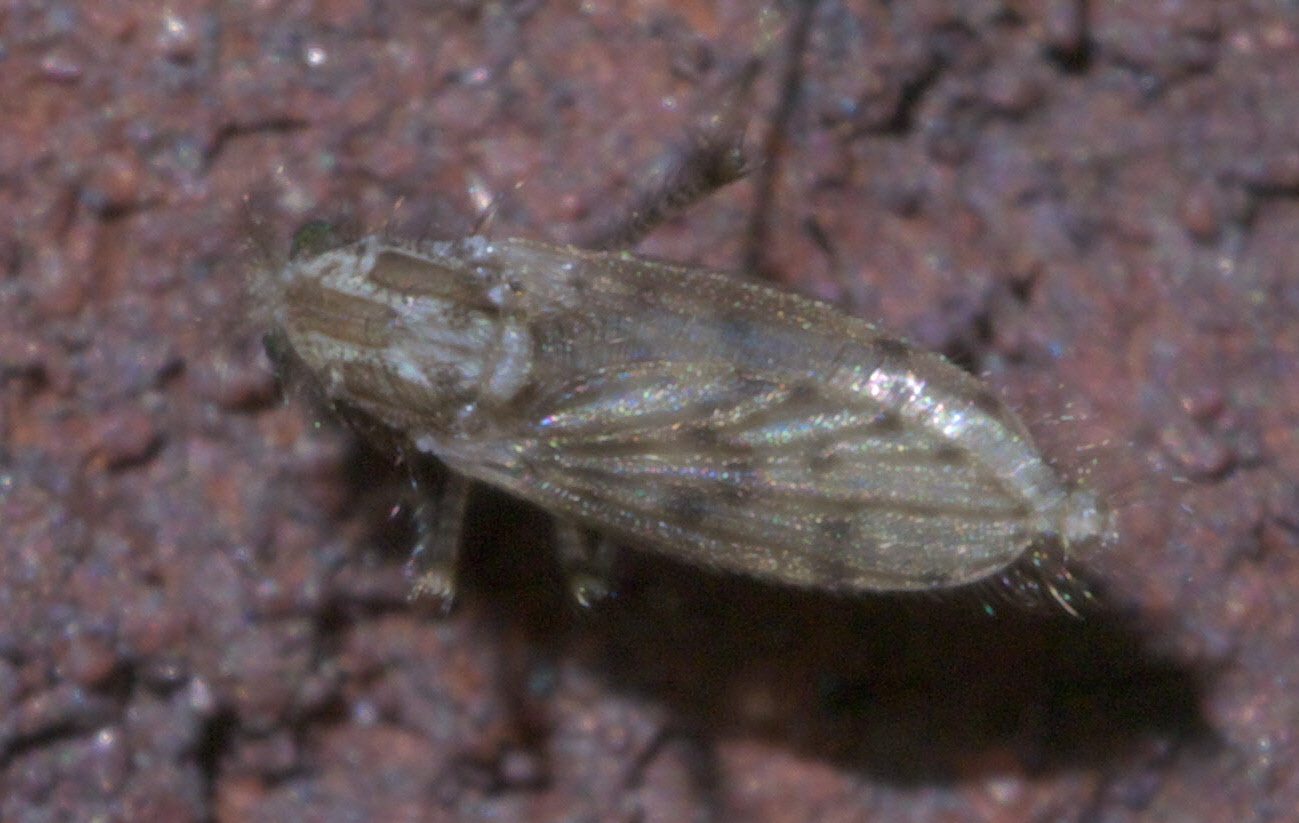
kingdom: Animalia
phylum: Arthropoda
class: Insecta
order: Diptera
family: Chaoboridae
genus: Chaoborus
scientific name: Chaoborus punctipennis
